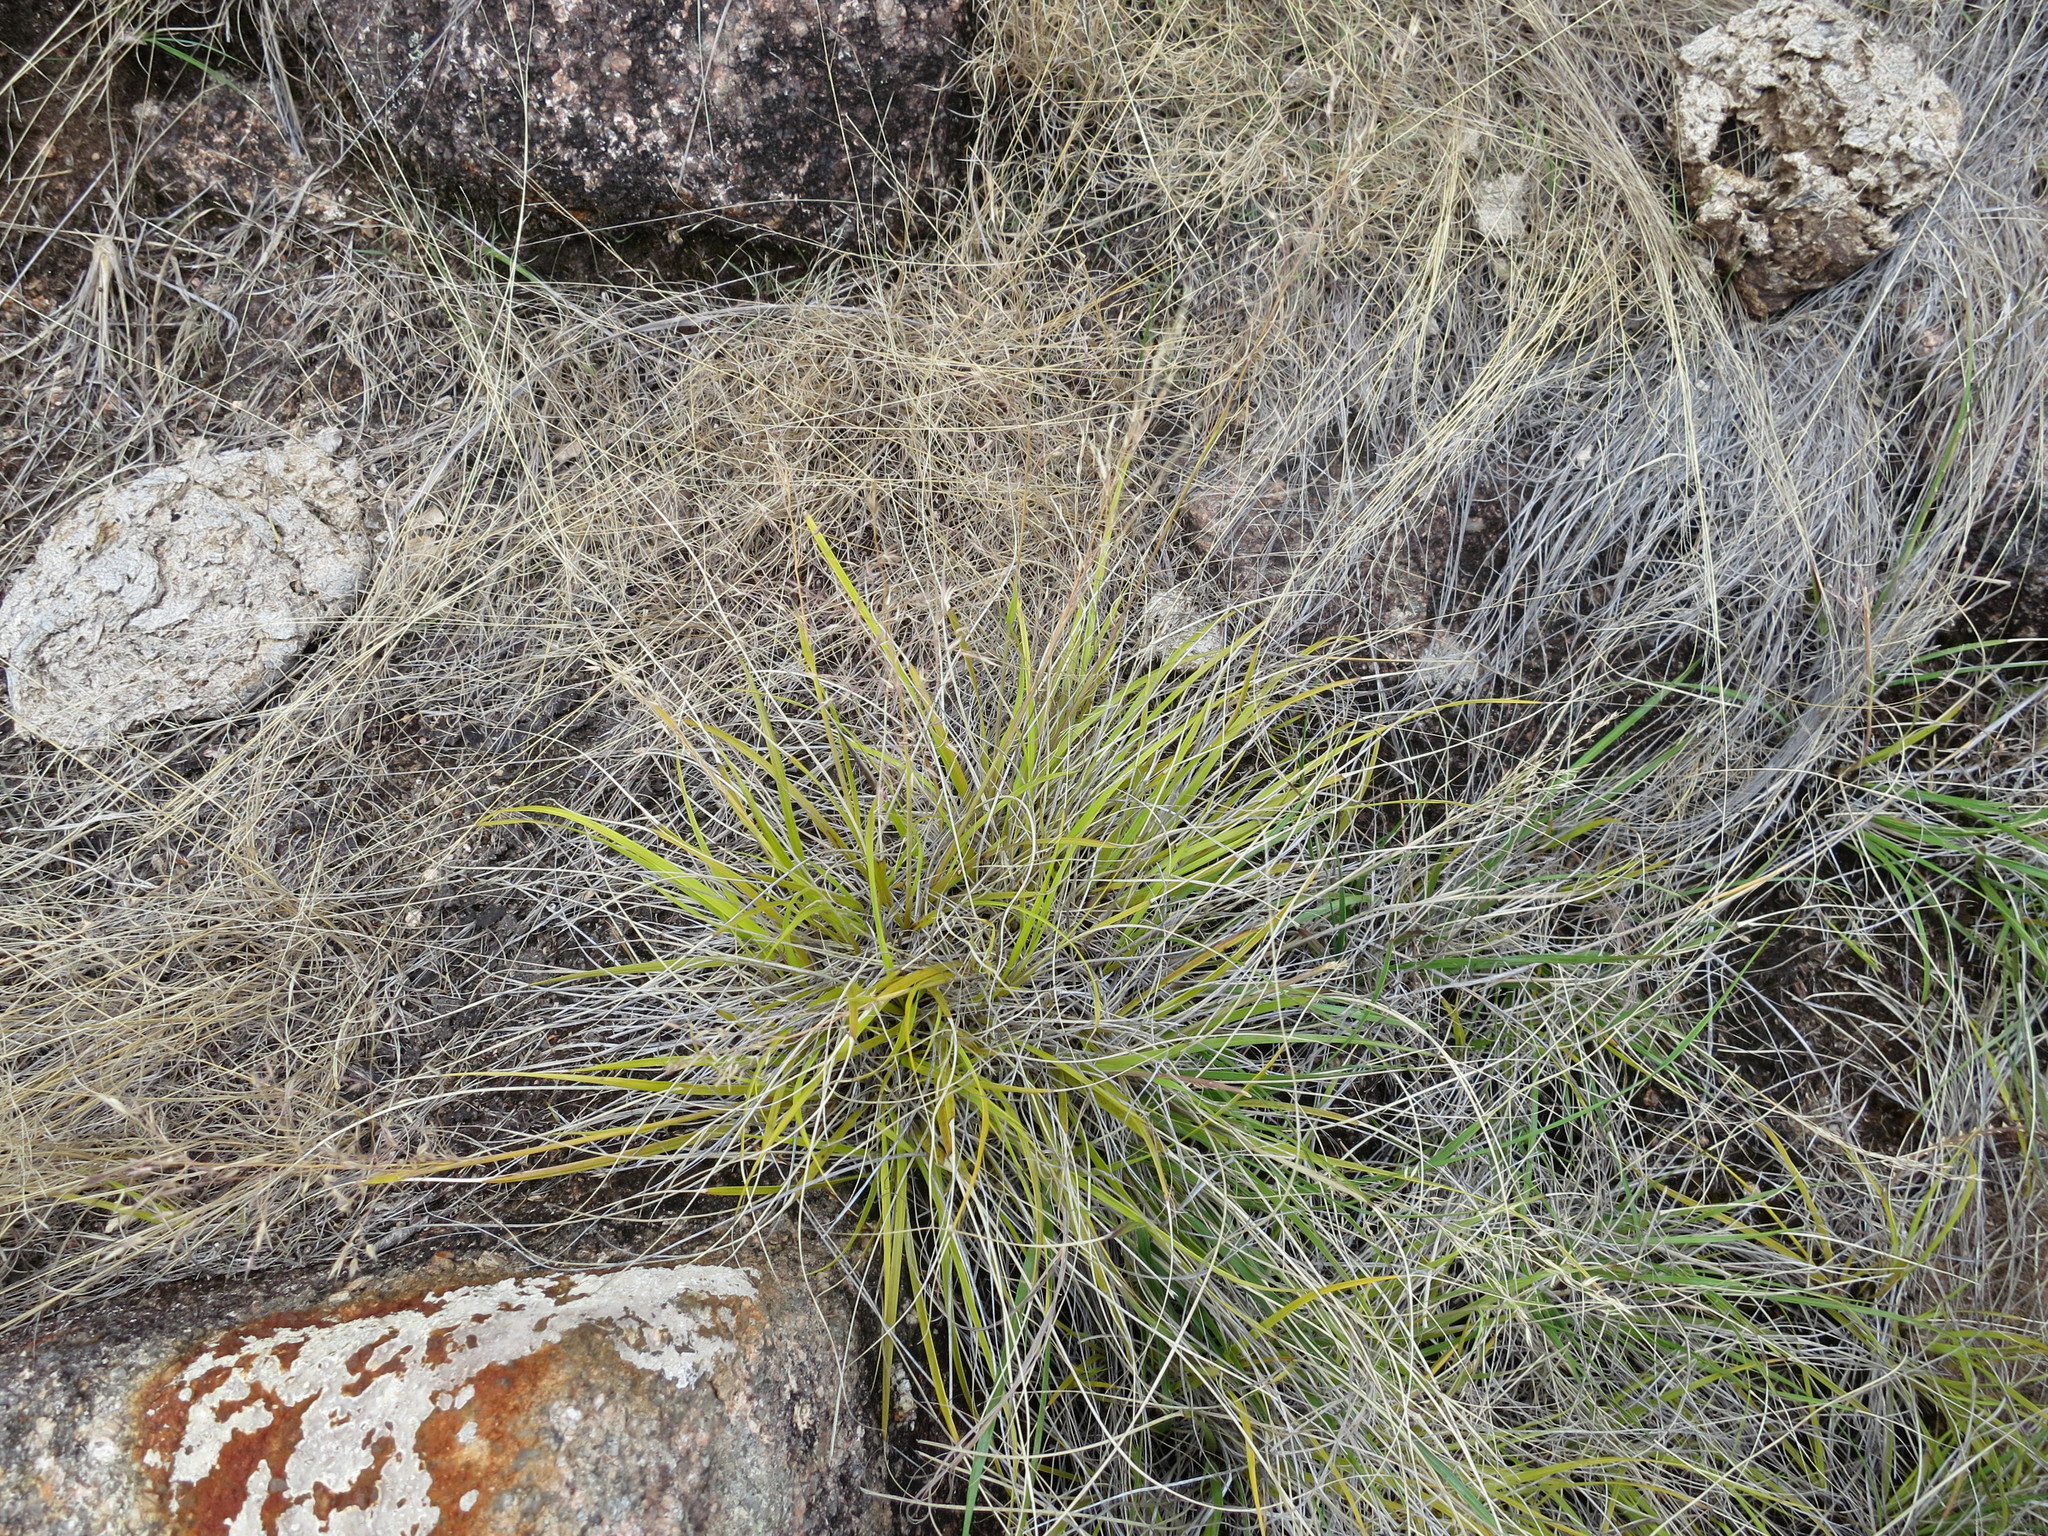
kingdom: Plantae
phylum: Tracheophyta
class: Liliopsida
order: Poales
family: Poaceae
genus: Styppeiochloa
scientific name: Styppeiochloa hitchcockii
